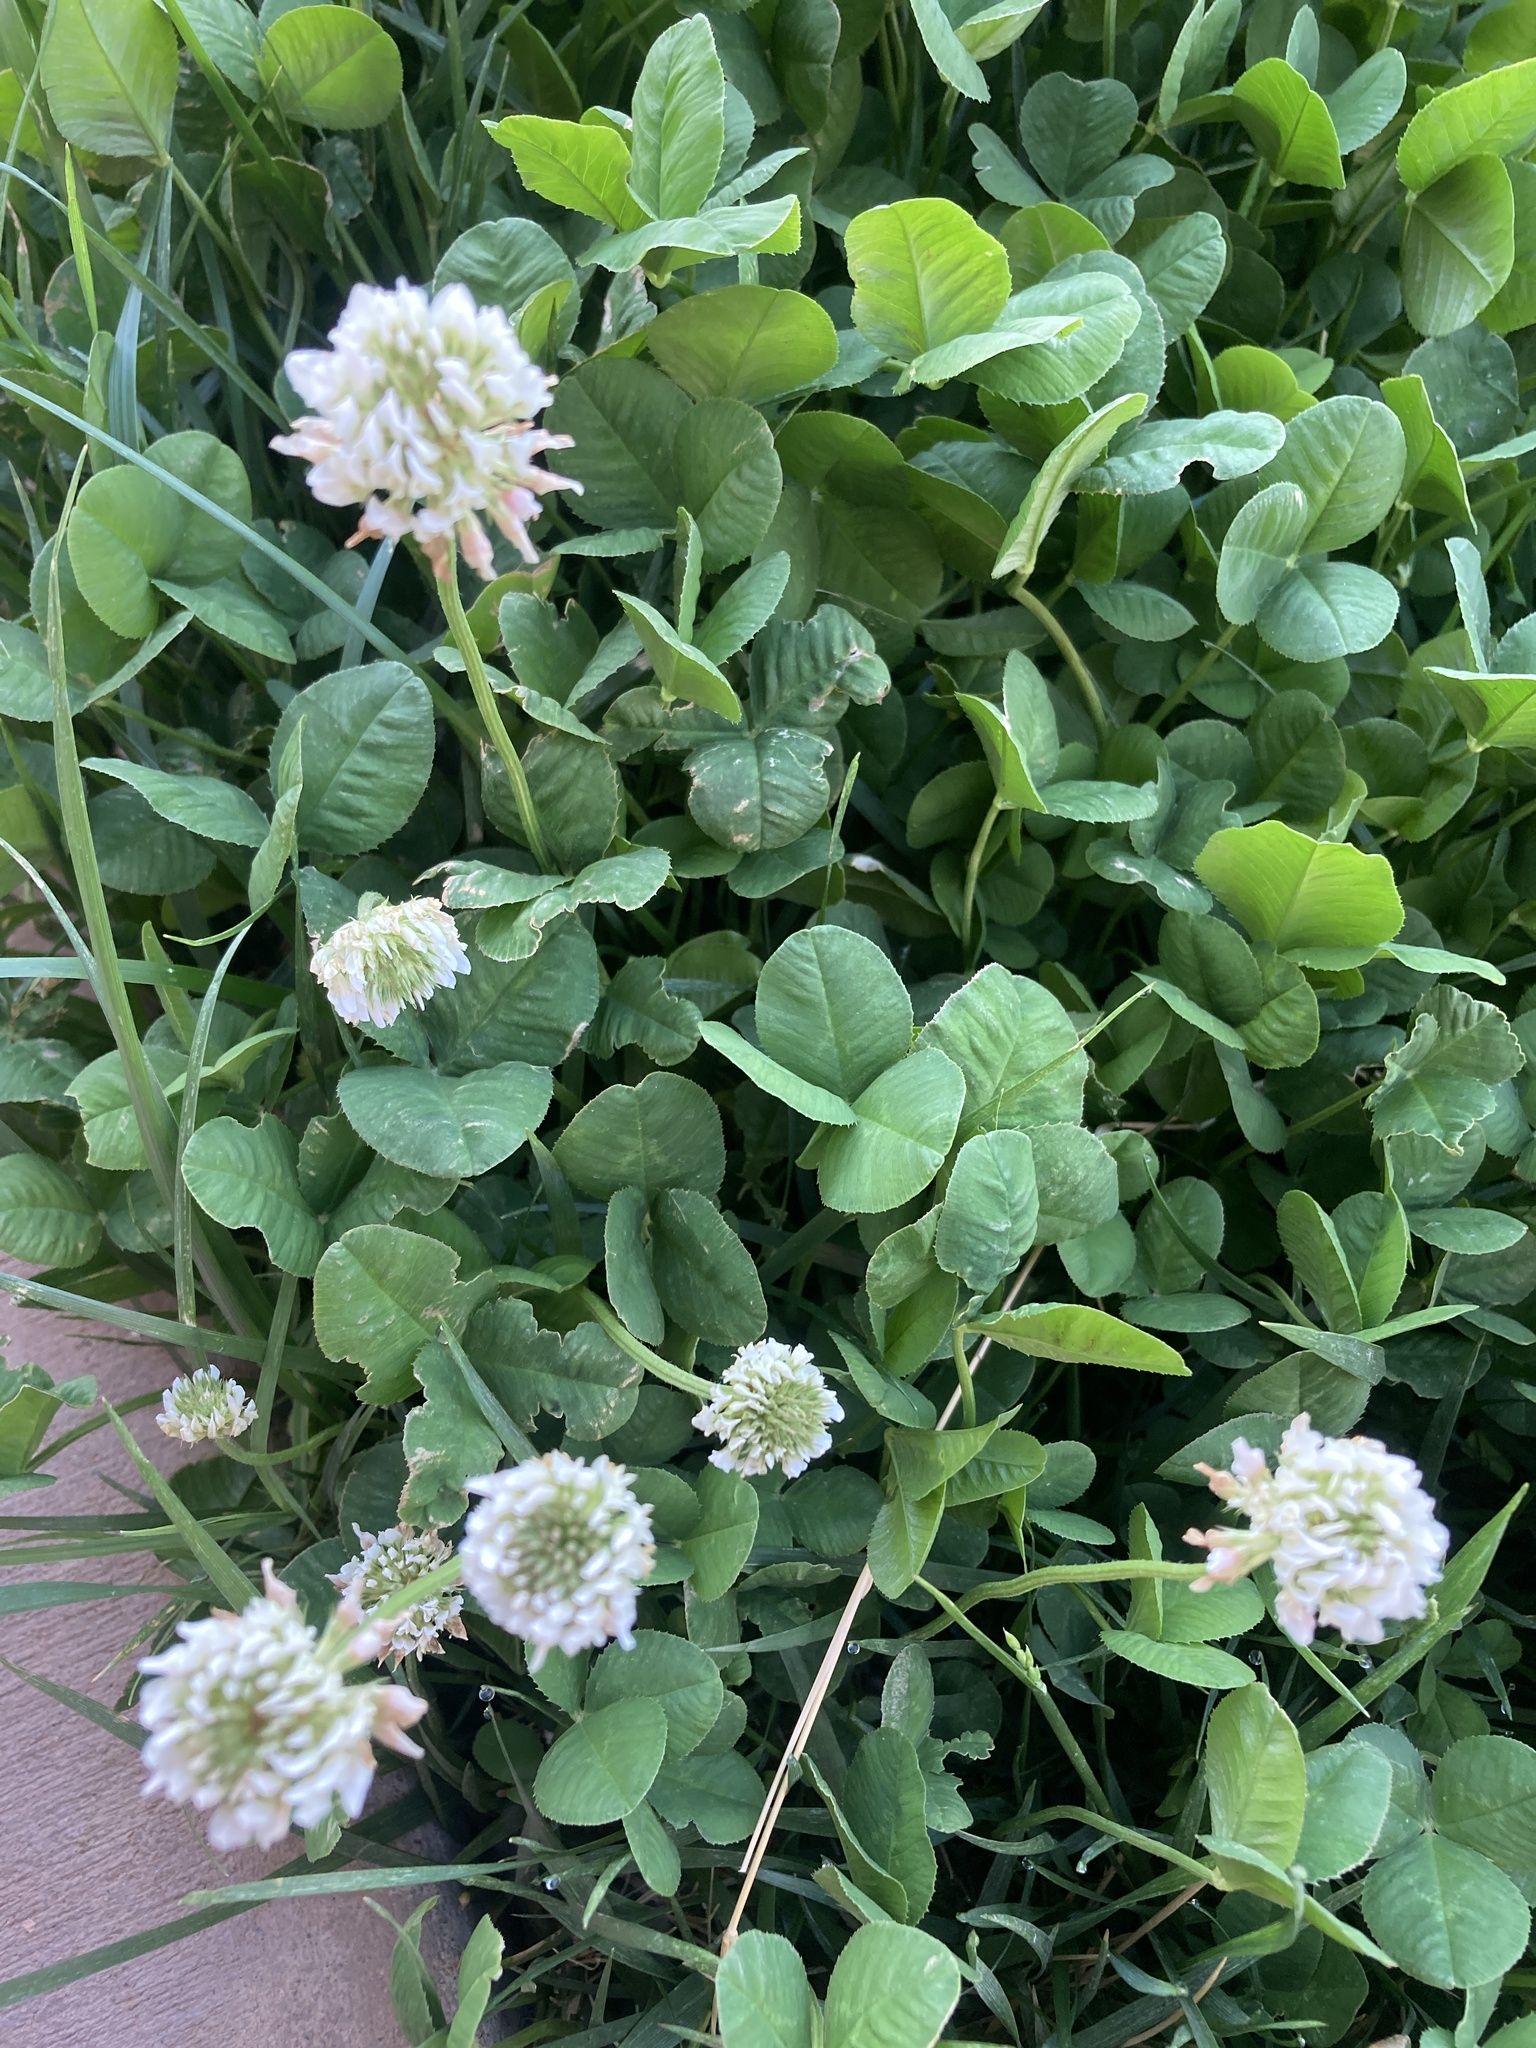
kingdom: Plantae
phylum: Tracheophyta
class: Magnoliopsida
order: Fabales
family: Fabaceae
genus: Trifolium
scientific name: Trifolium repens
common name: White clover
